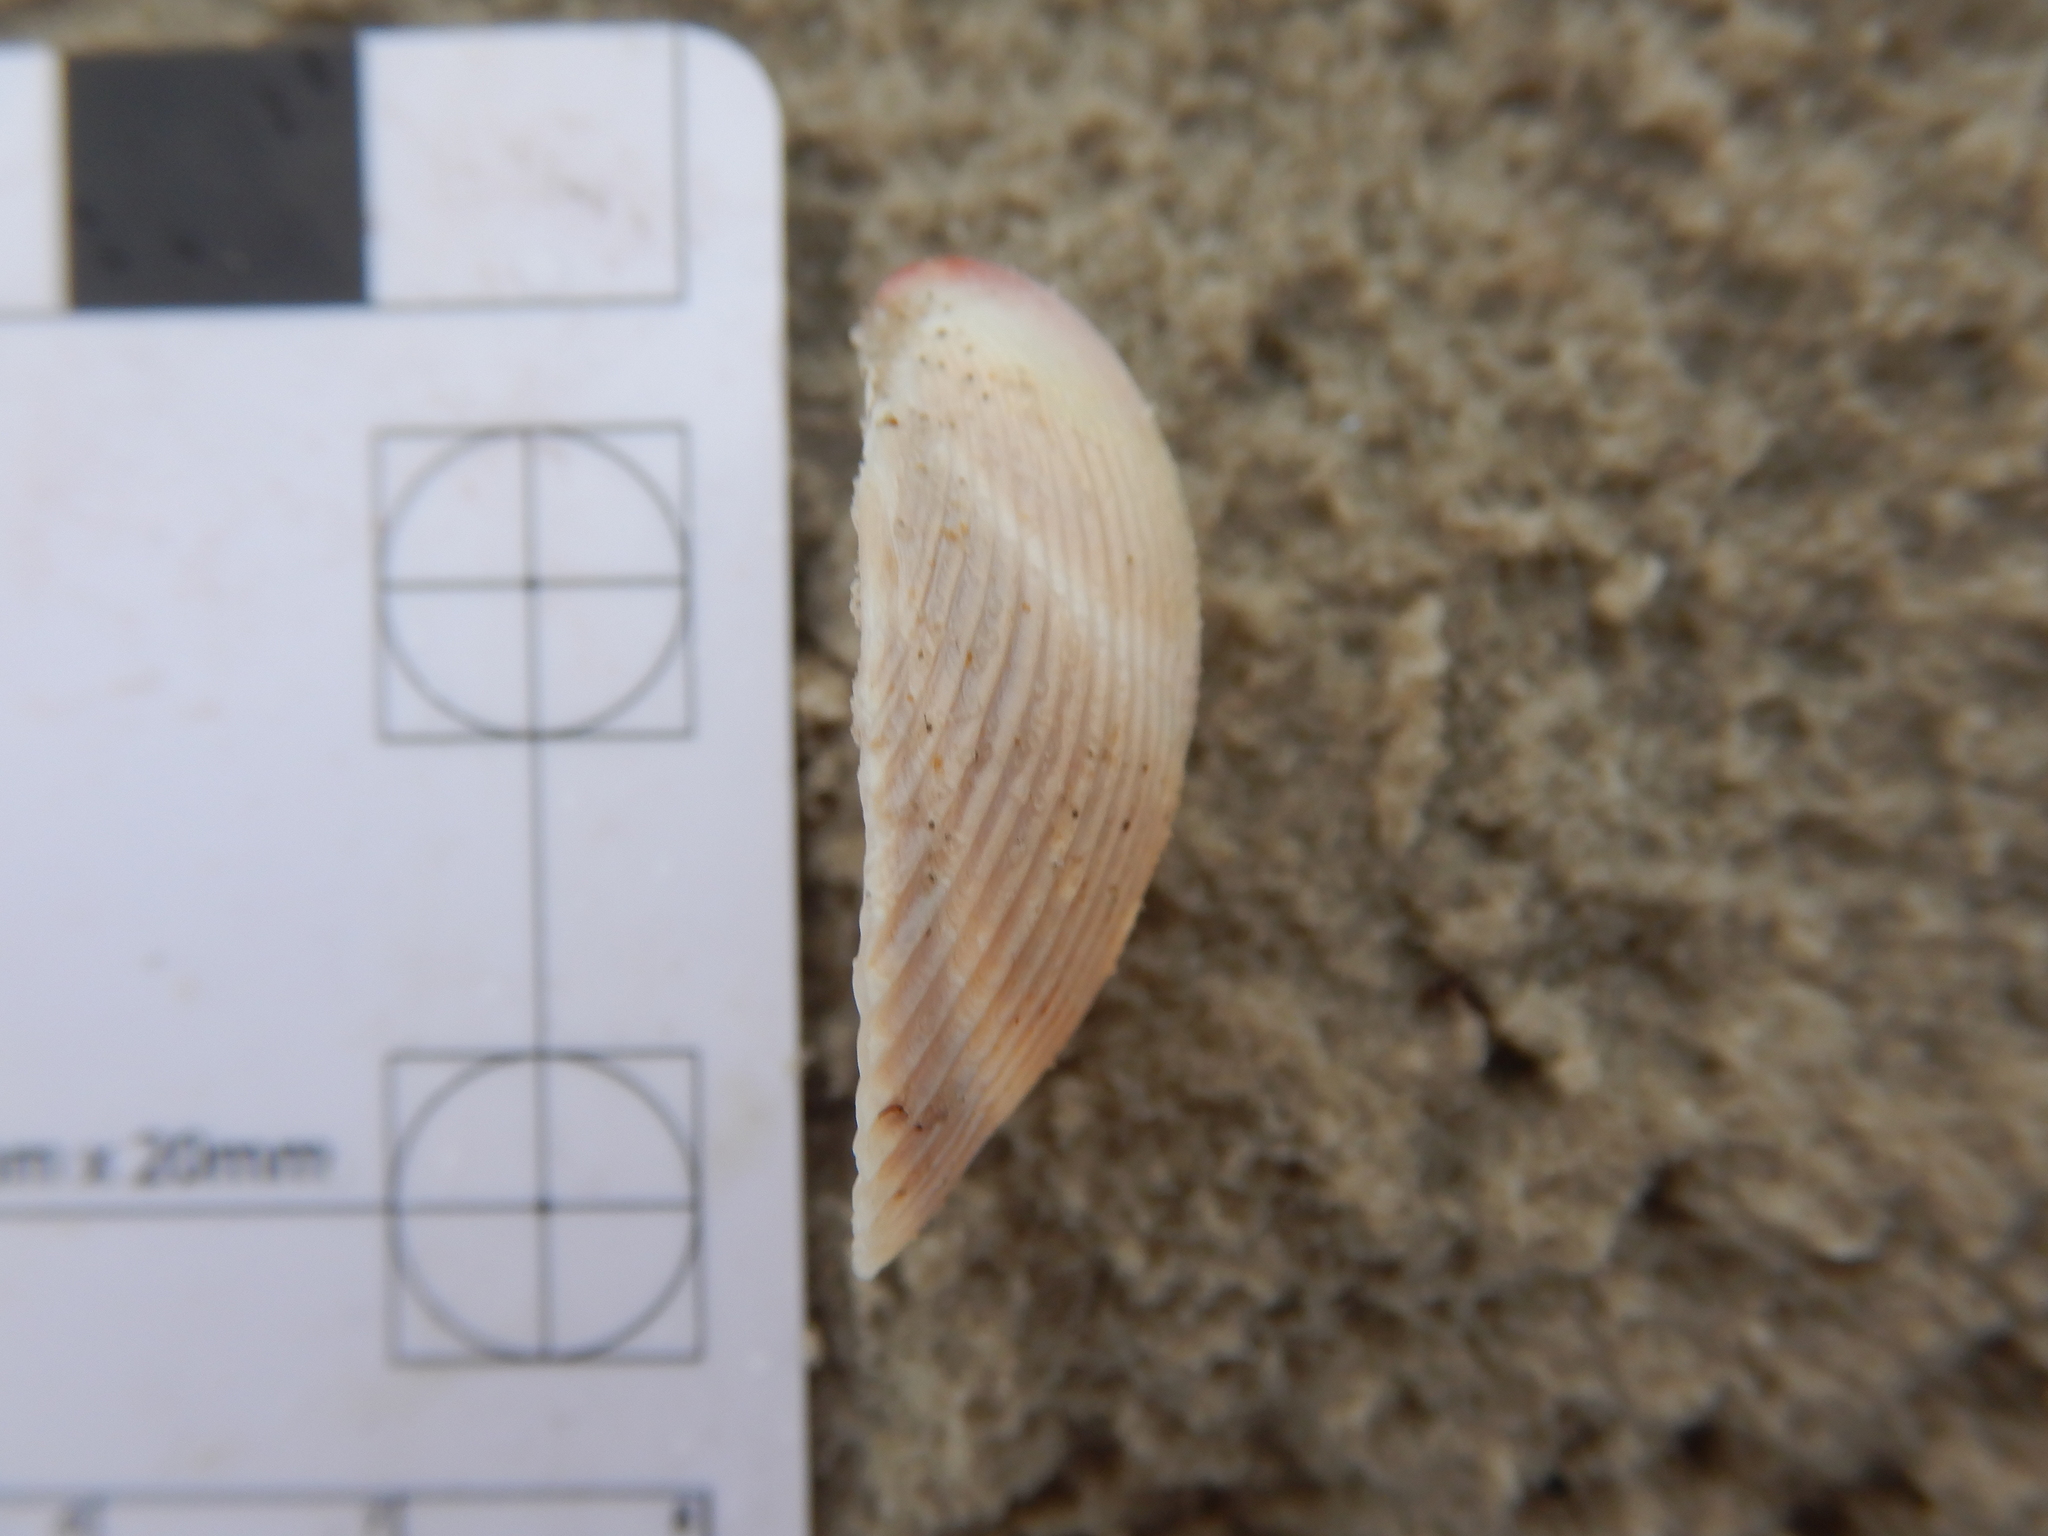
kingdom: Animalia
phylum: Mollusca
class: Bivalvia
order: Cardiida
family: Cardiidae
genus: Fulvia
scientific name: Fulvia tenuicostata
